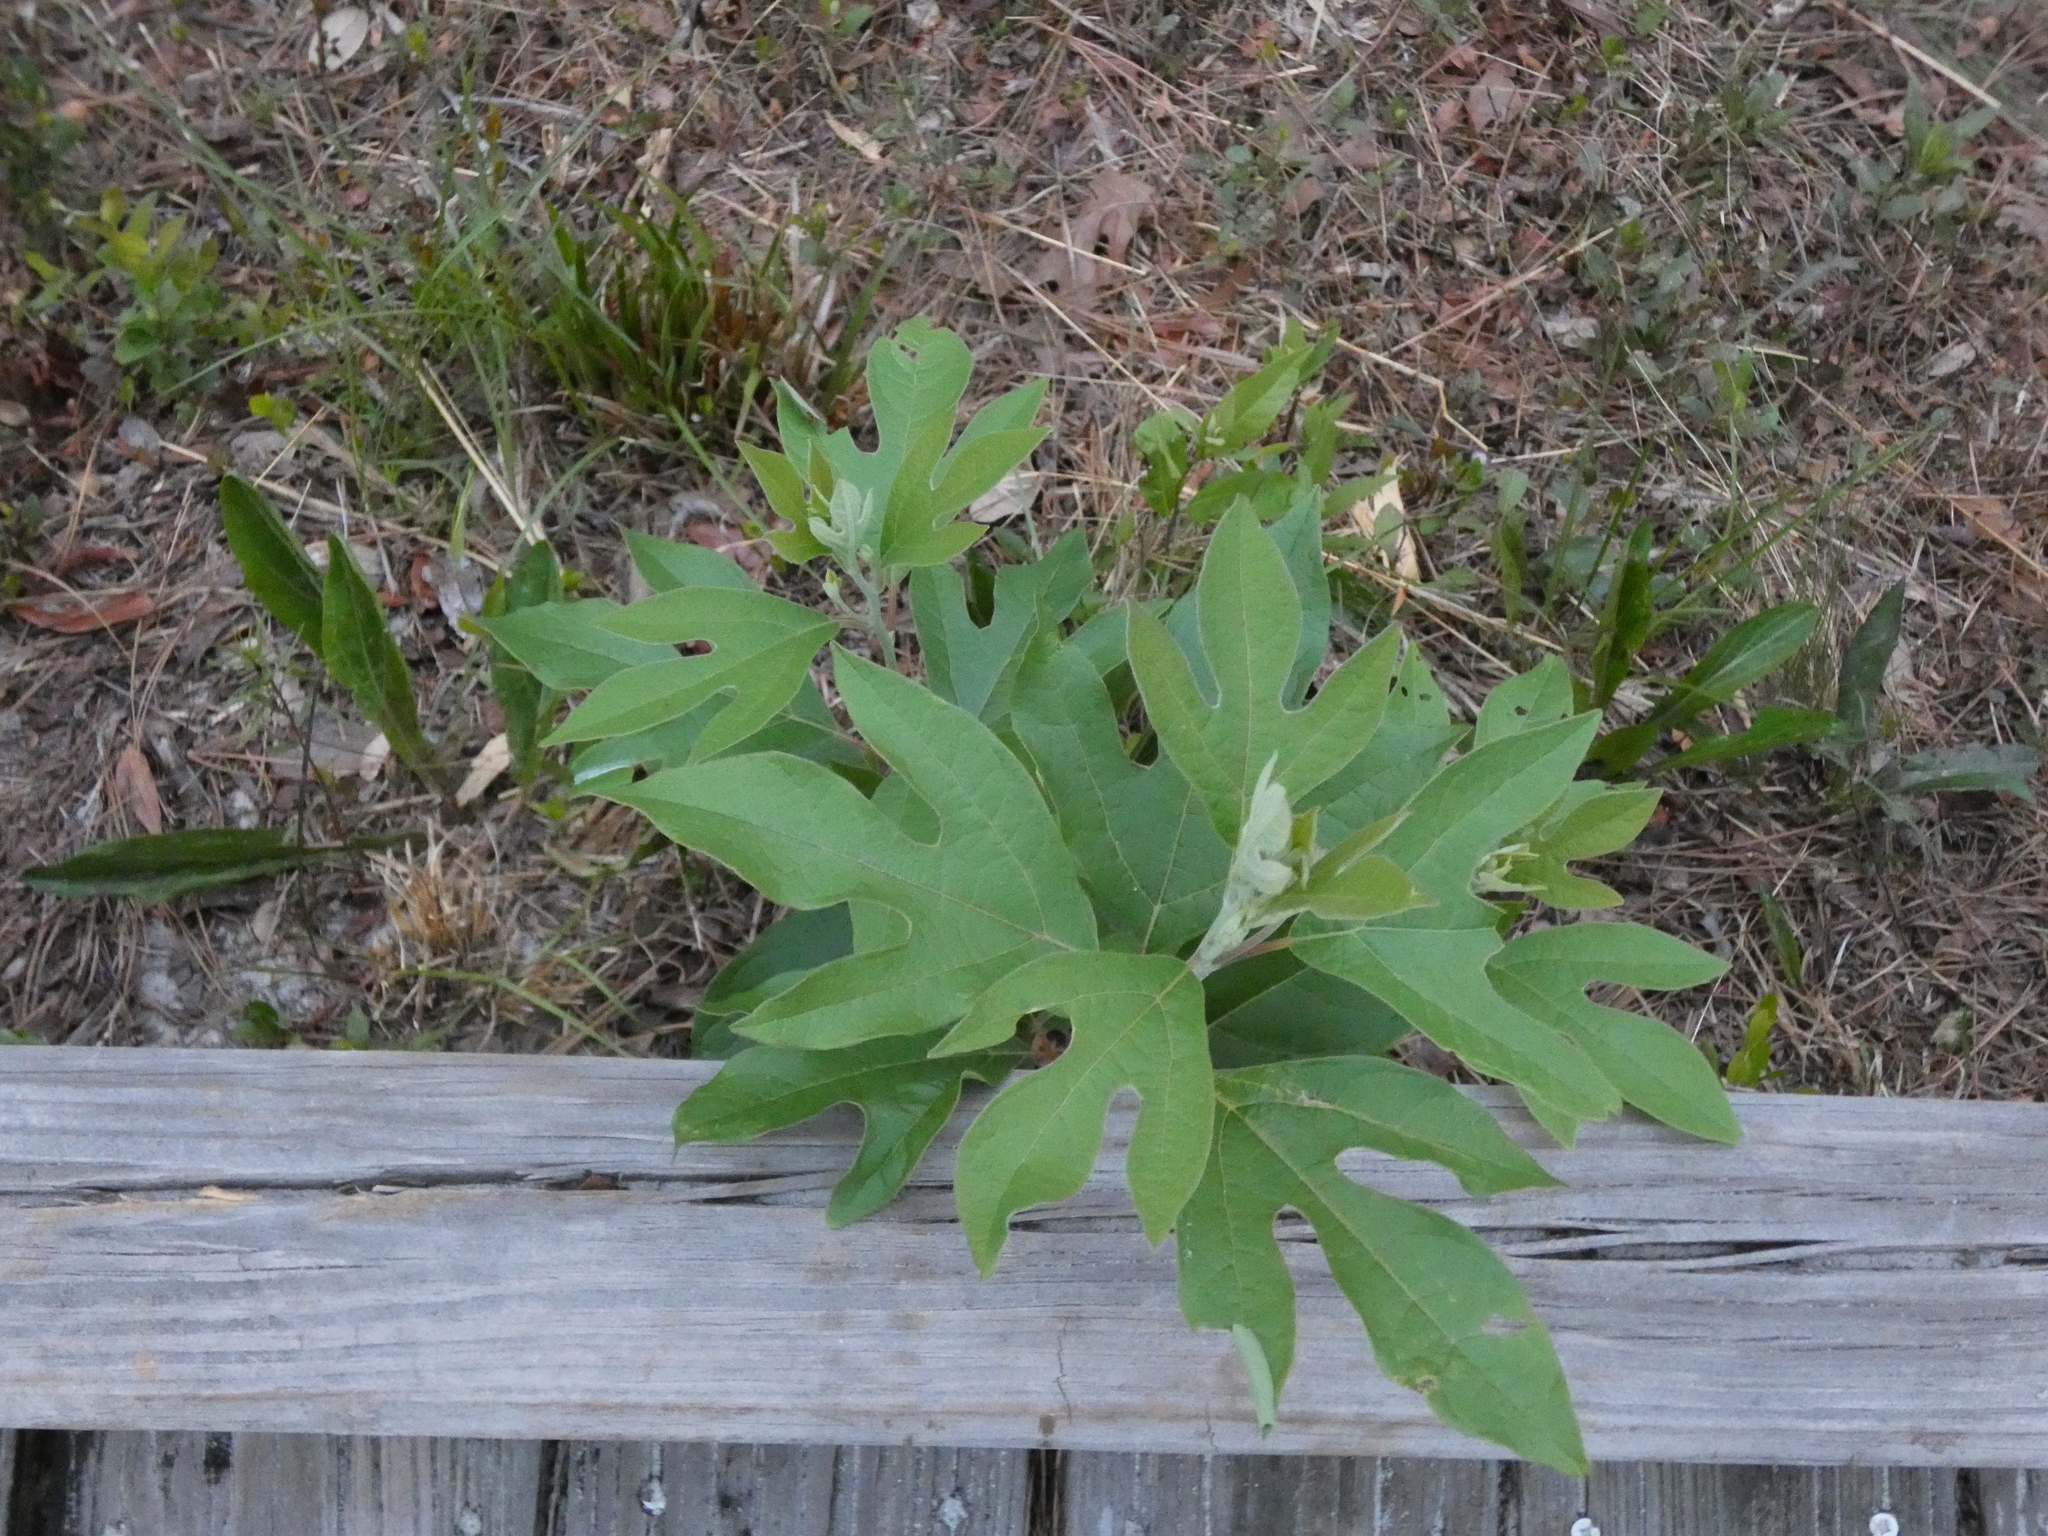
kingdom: Plantae
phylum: Tracheophyta
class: Magnoliopsida
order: Laurales
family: Lauraceae
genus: Sassafras
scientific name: Sassafras albidum
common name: Sassafras
